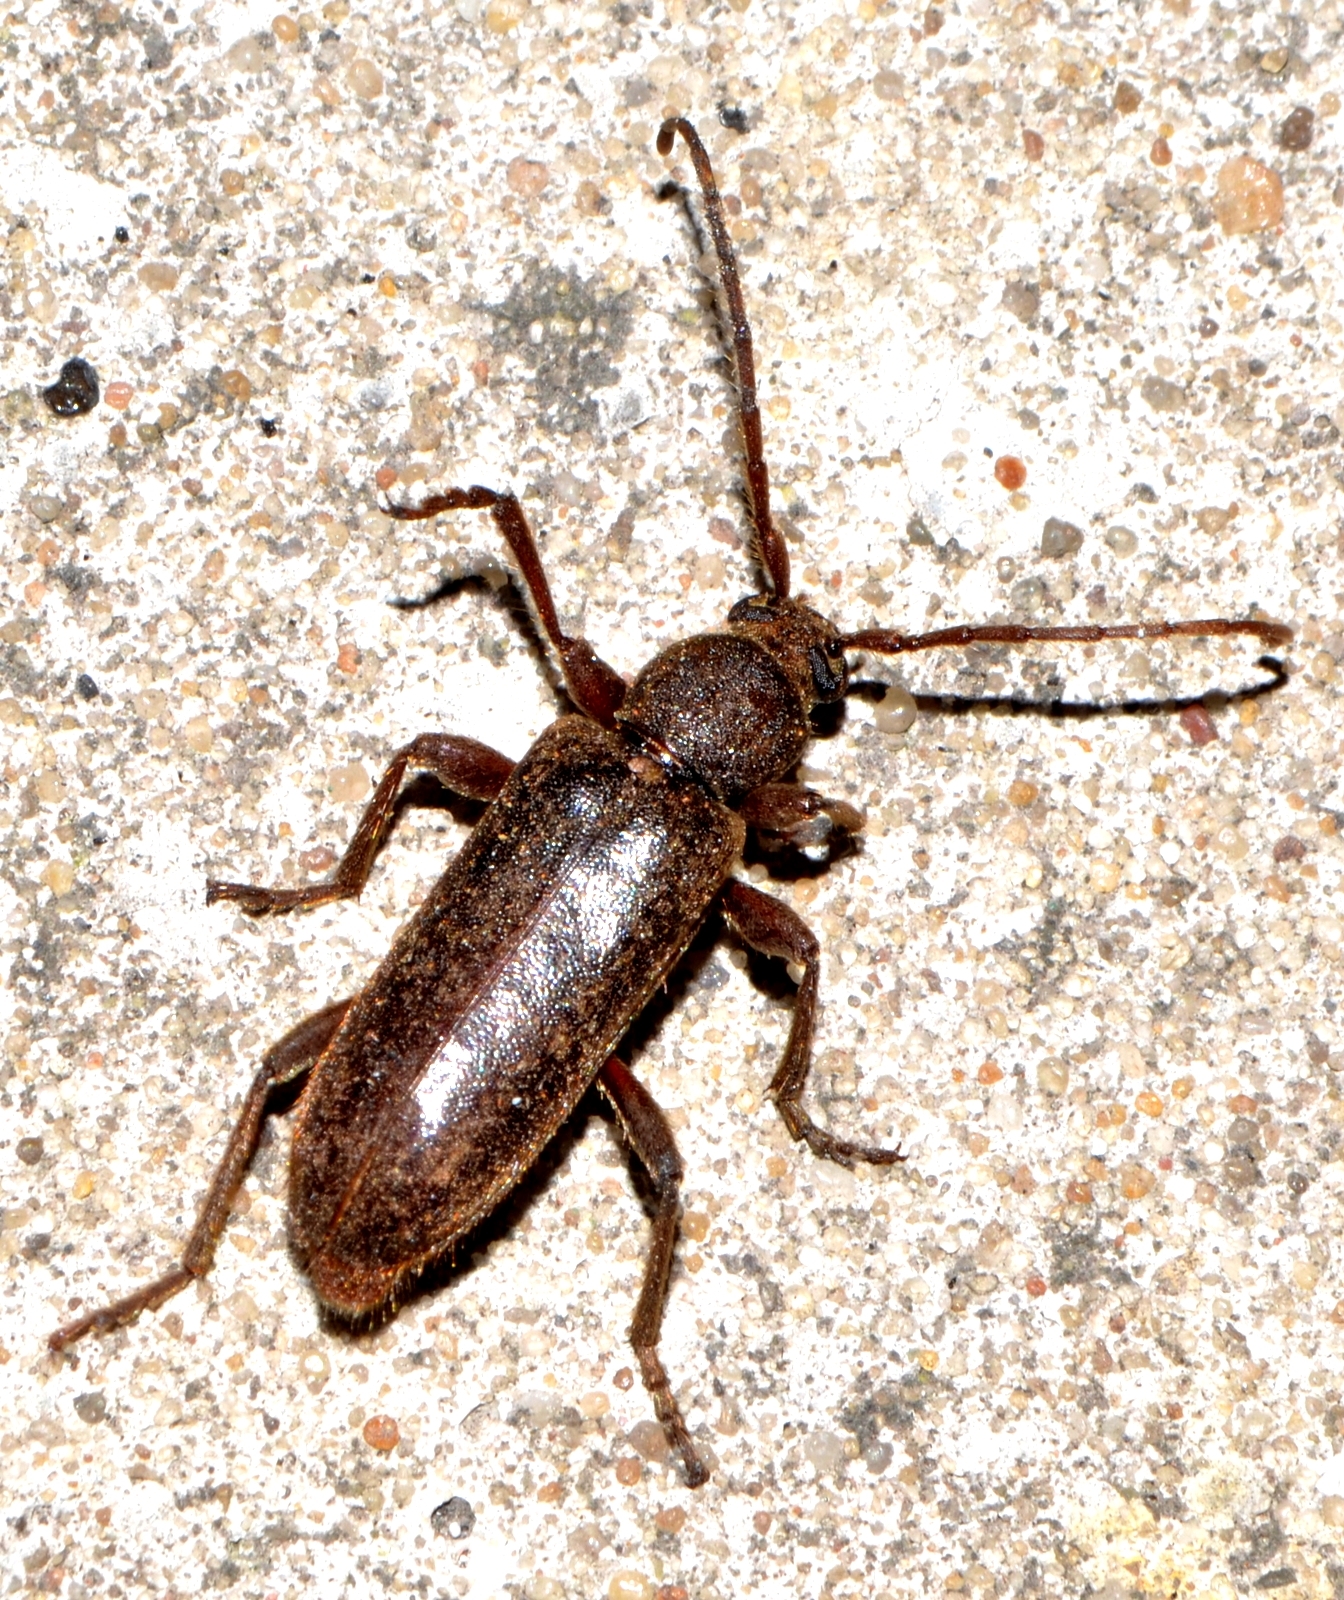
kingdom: Animalia
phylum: Arthropoda
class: Insecta
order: Coleoptera
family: Cerambycidae
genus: Trichoferus
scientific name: Trichoferus campestris
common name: Velvet long horned beetle
